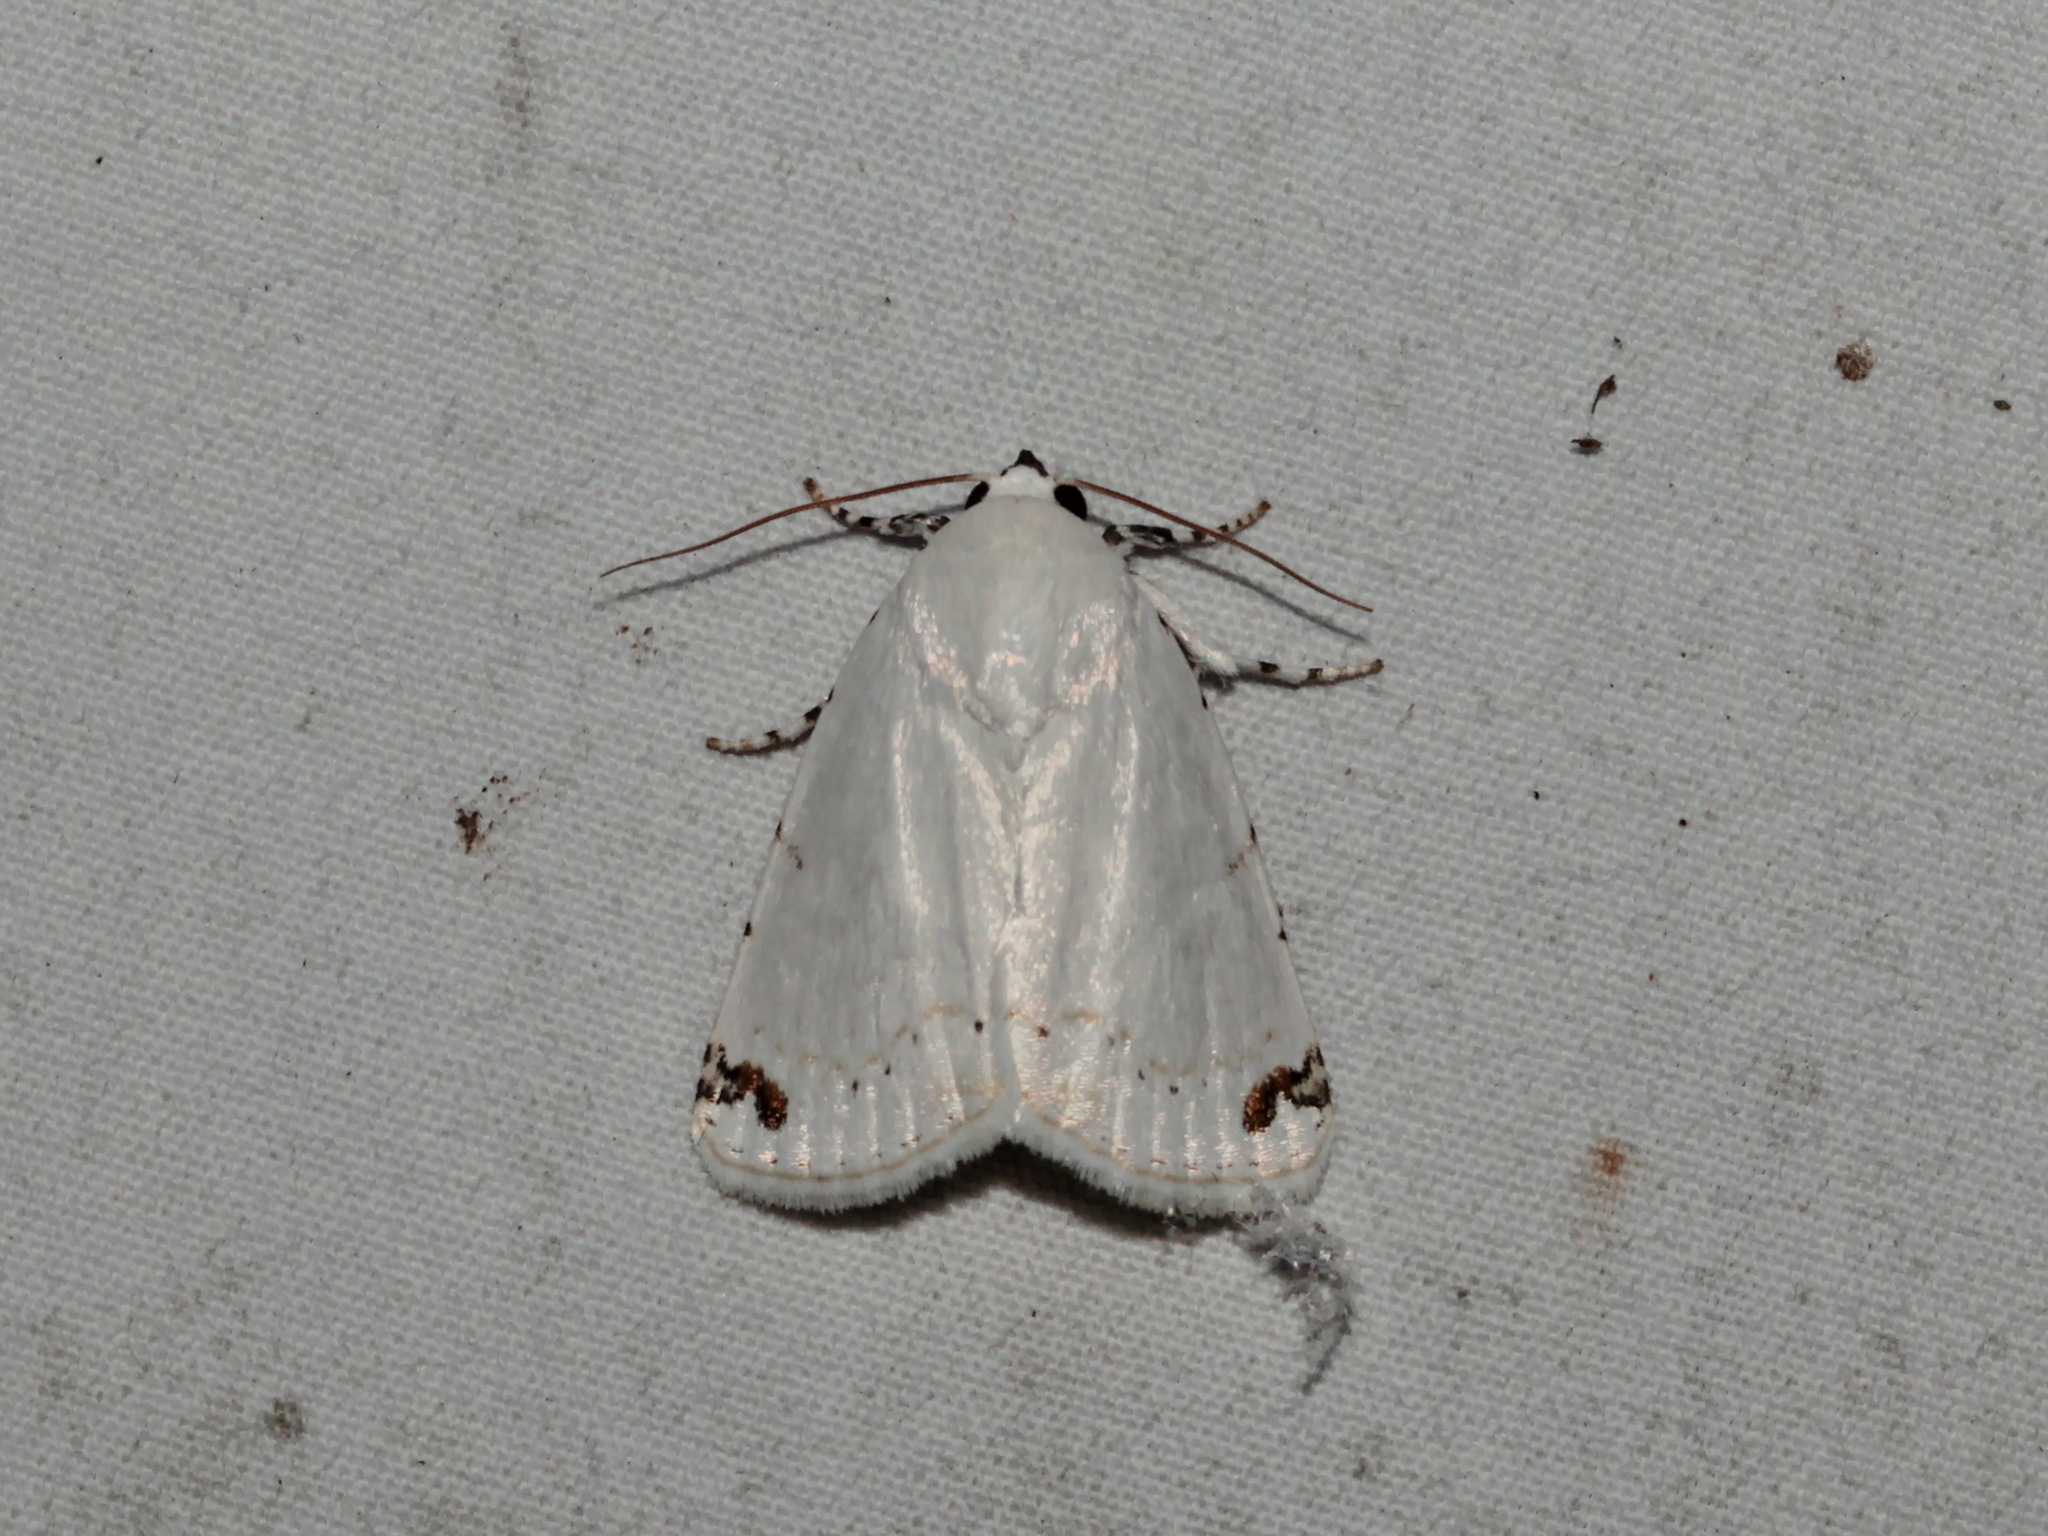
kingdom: Animalia
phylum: Arthropoda
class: Insecta
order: Lepidoptera
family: Noctuidae
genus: Sphragifera
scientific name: Sphragifera rejecta
